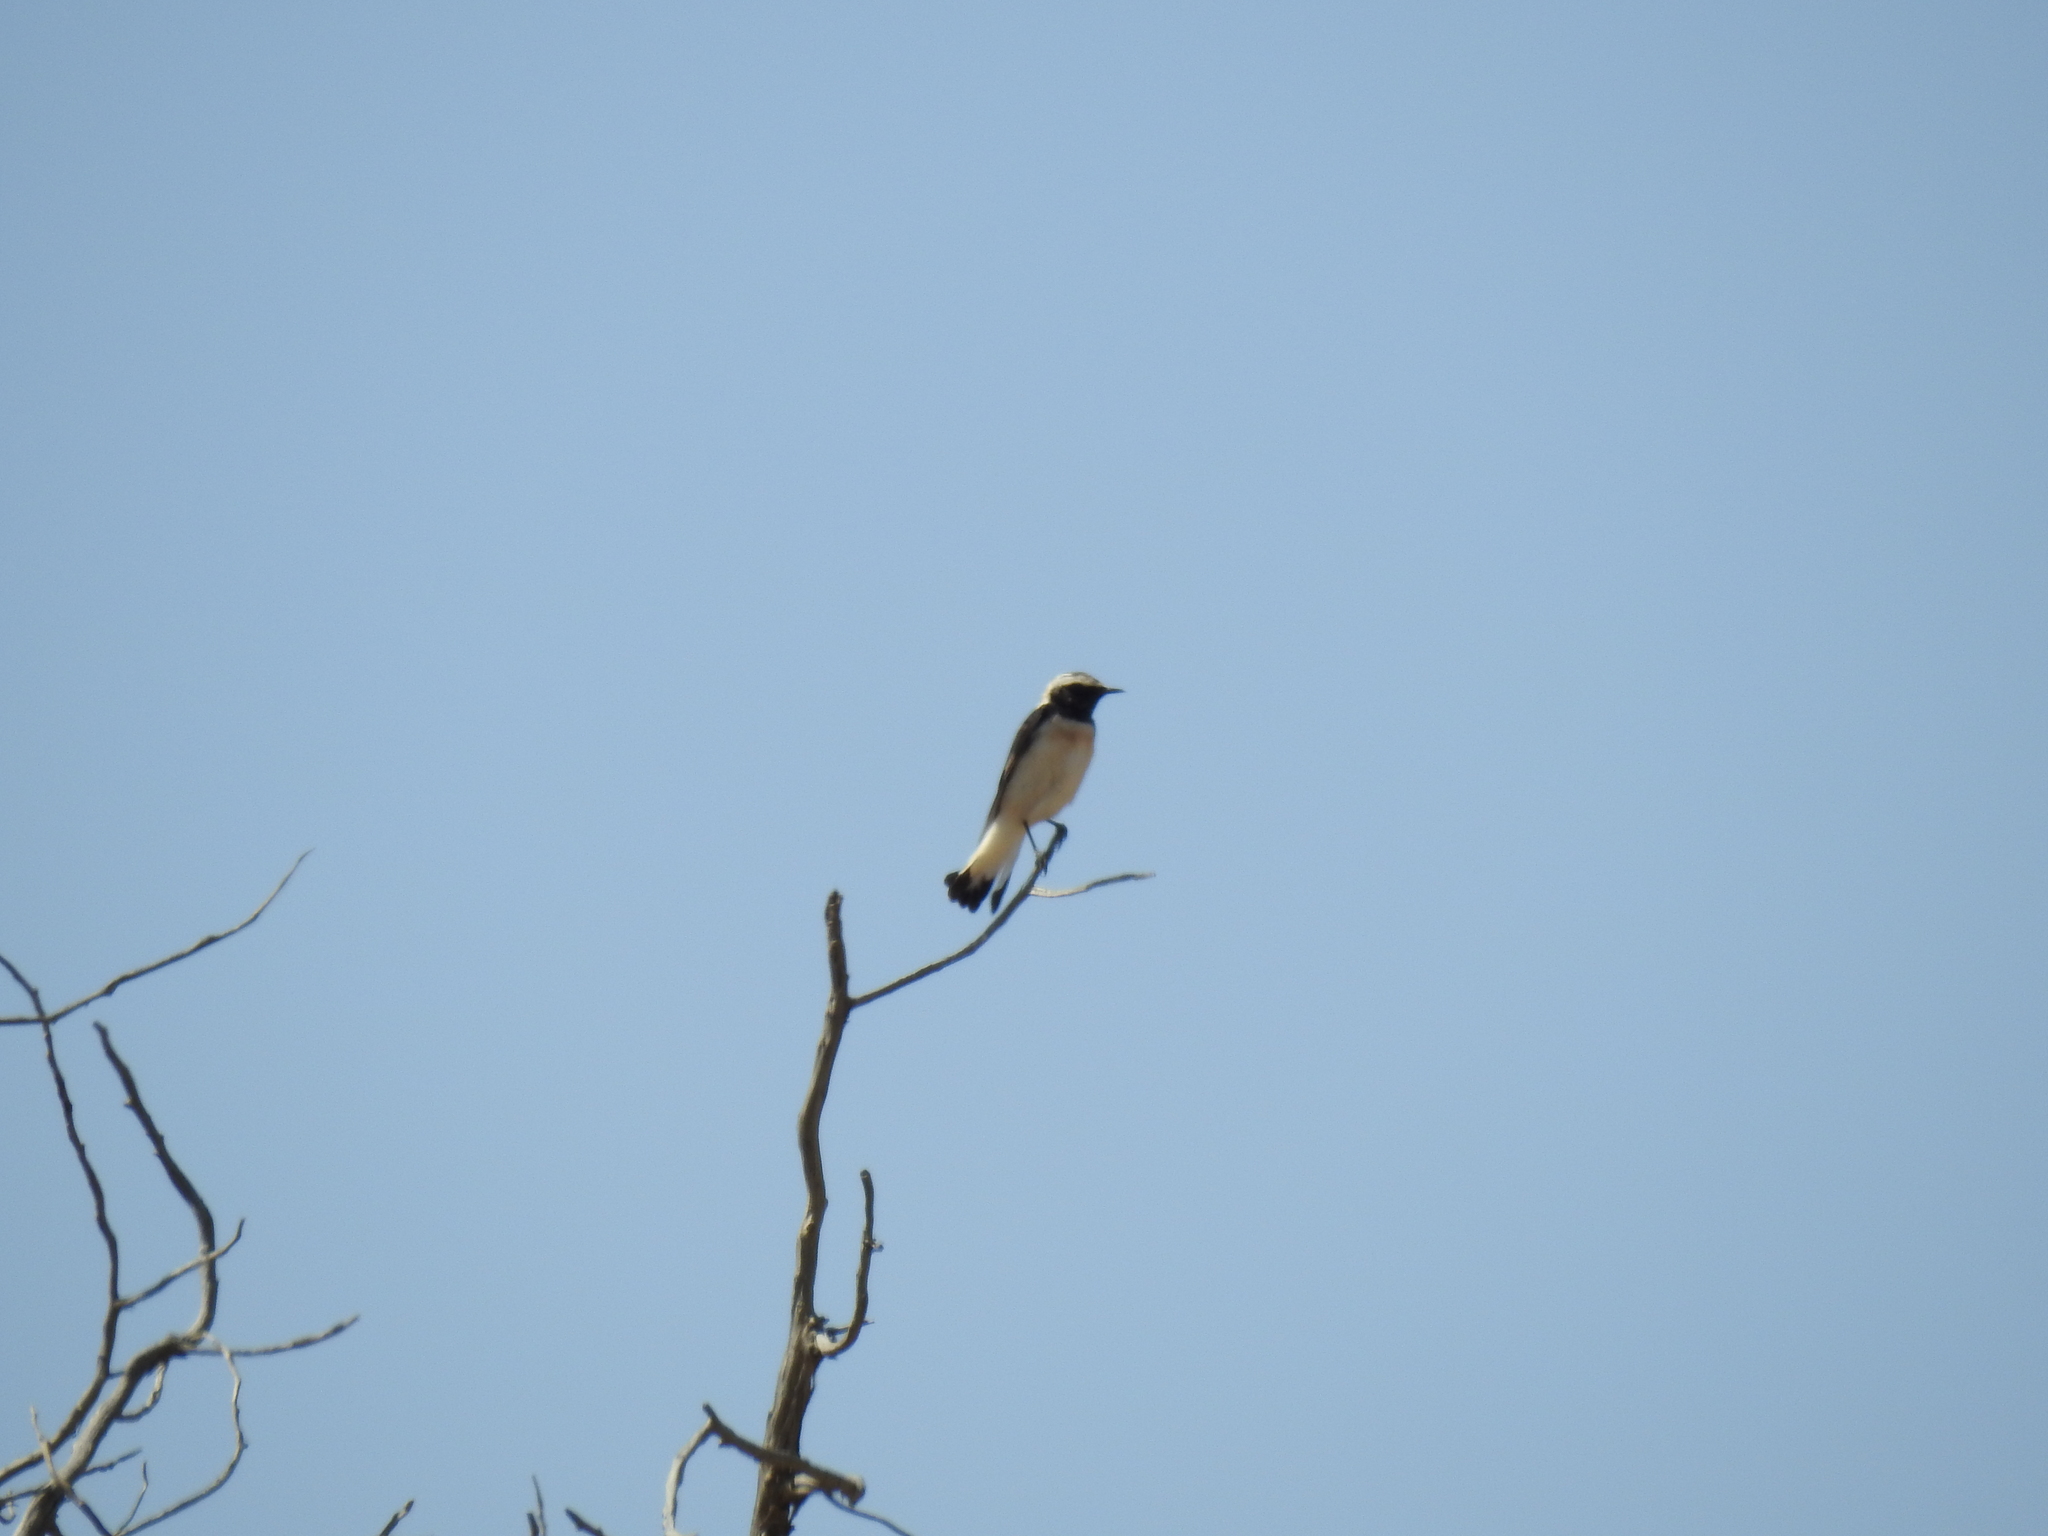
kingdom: Animalia
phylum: Chordata
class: Aves
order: Passeriformes
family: Muscicapidae
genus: Oenanthe
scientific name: Oenanthe pleschanka
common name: Pied wheatear
